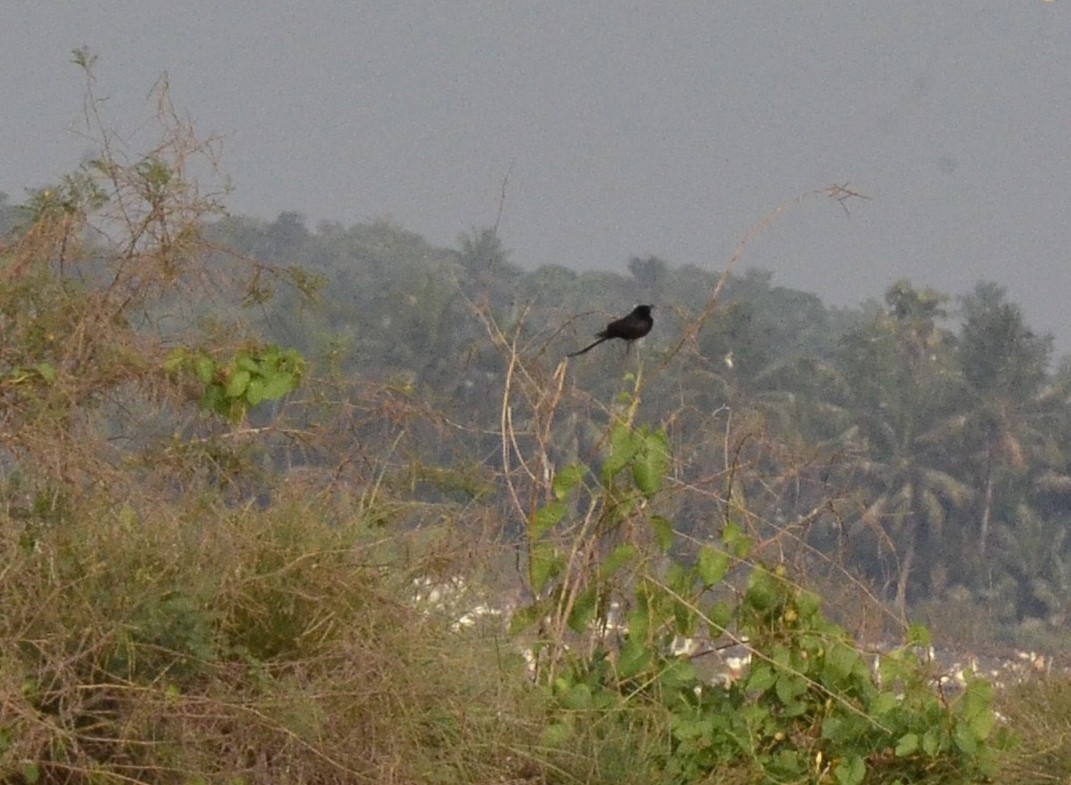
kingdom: Animalia
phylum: Chordata
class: Aves
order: Passeriformes
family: Dicruridae
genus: Dicrurus
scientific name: Dicrurus macrocercus
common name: Black drongo
